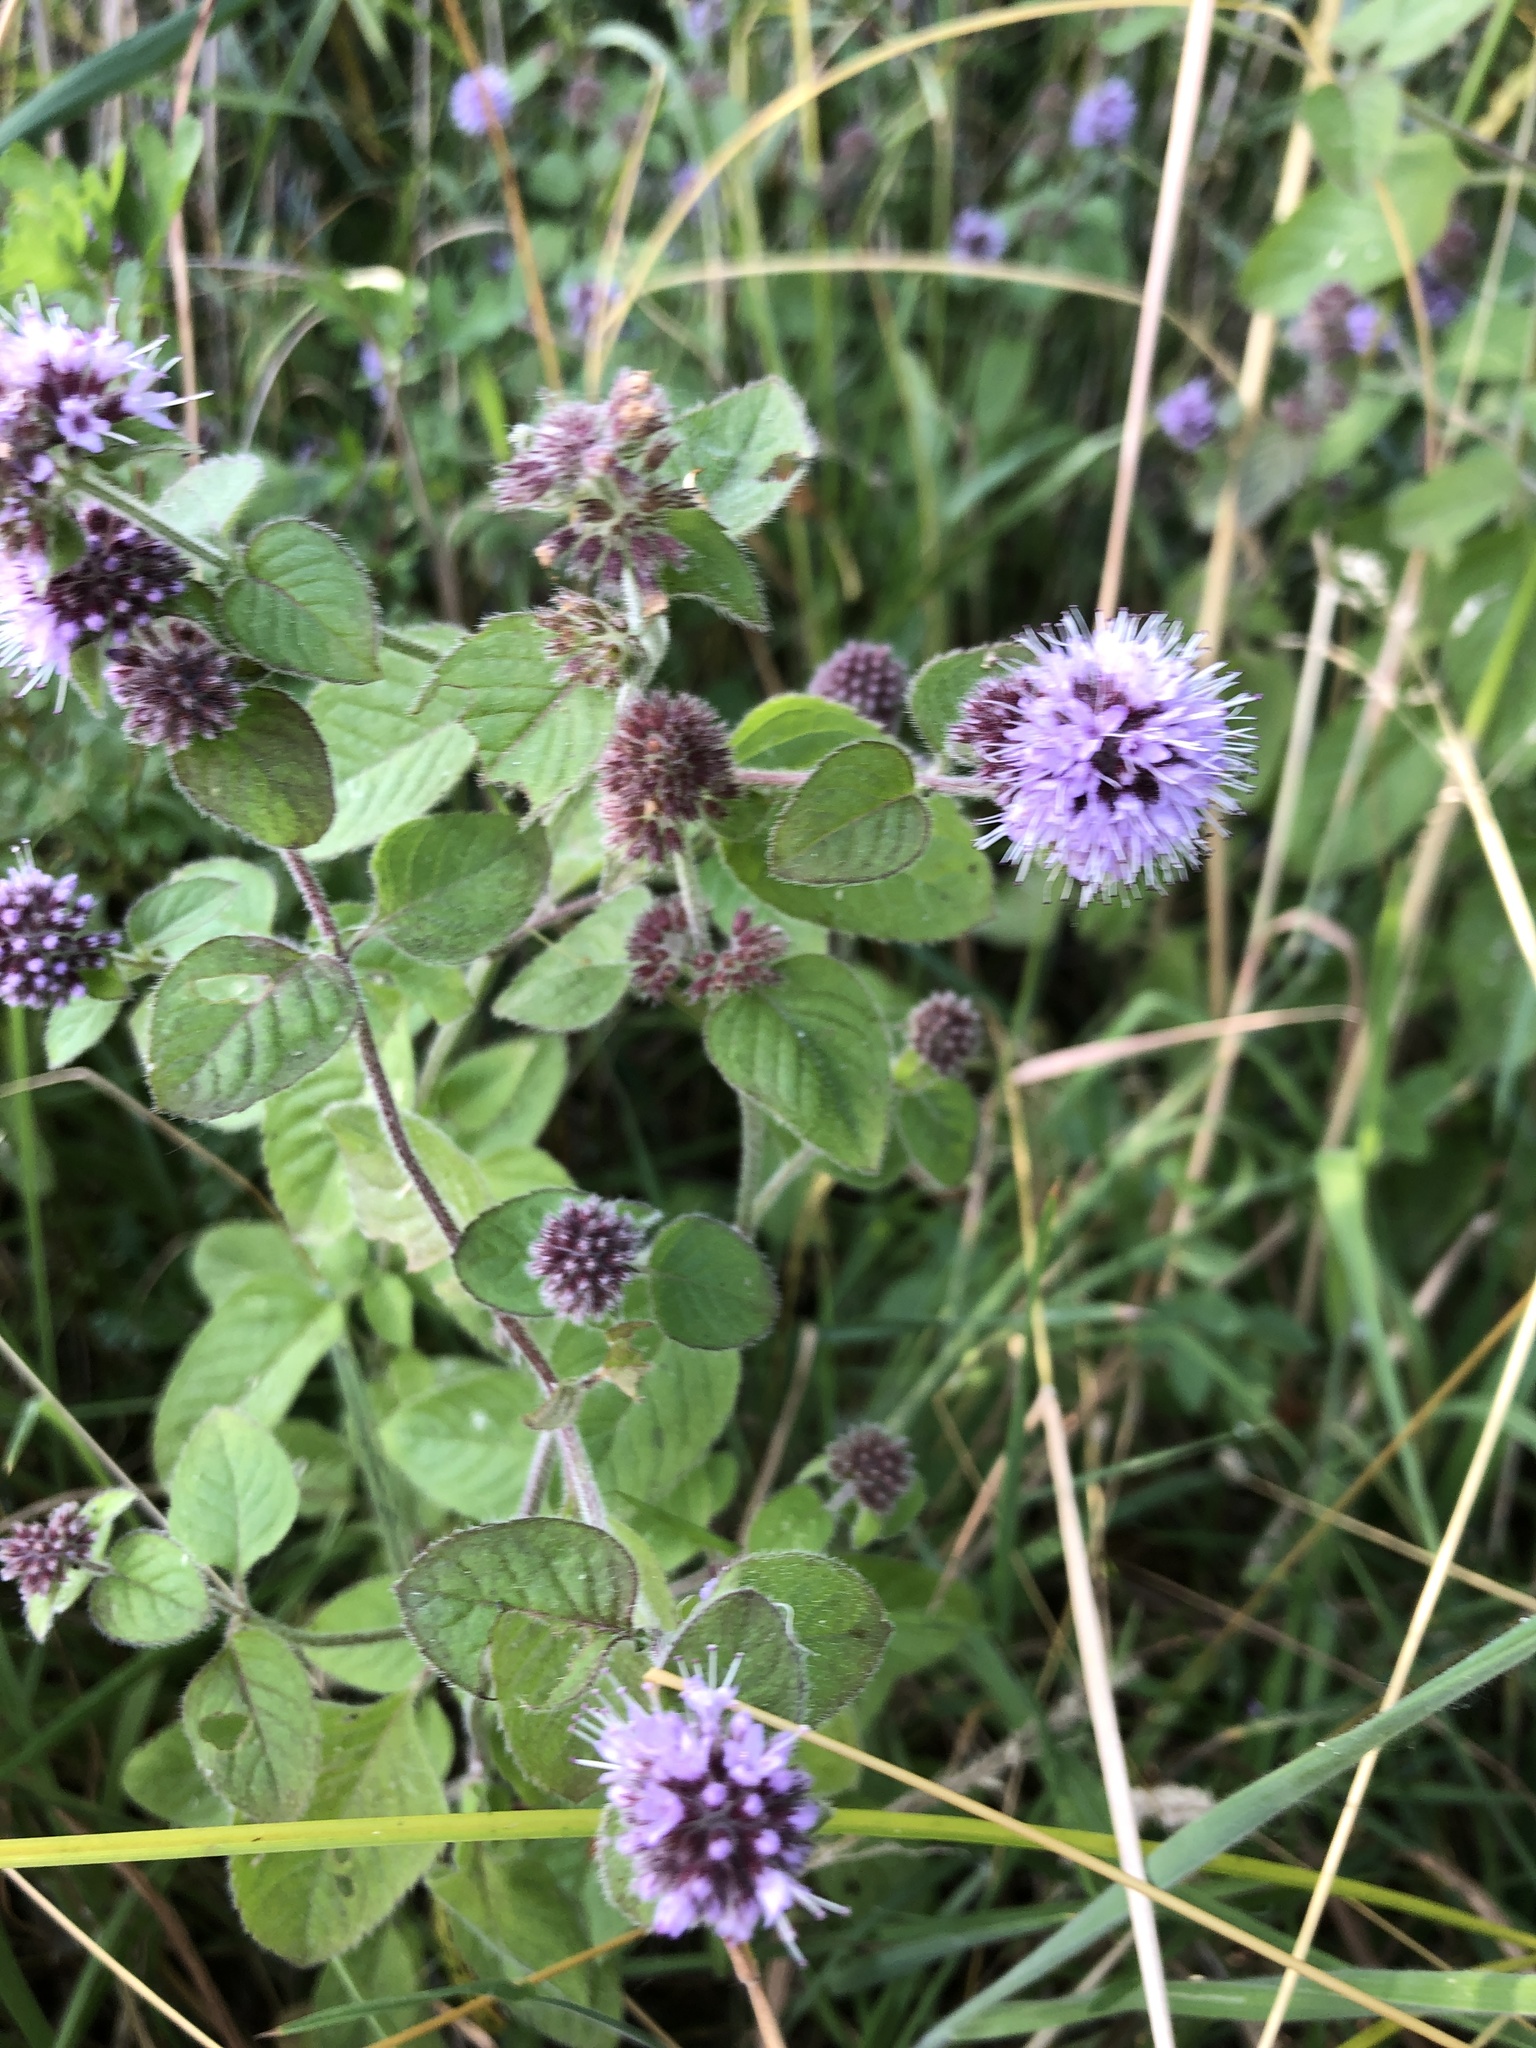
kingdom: Plantae
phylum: Tracheophyta
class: Magnoliopsida
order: Lamiales
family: Lamiaceae
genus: Mentha
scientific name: Mentha aquatica
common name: Water mint
